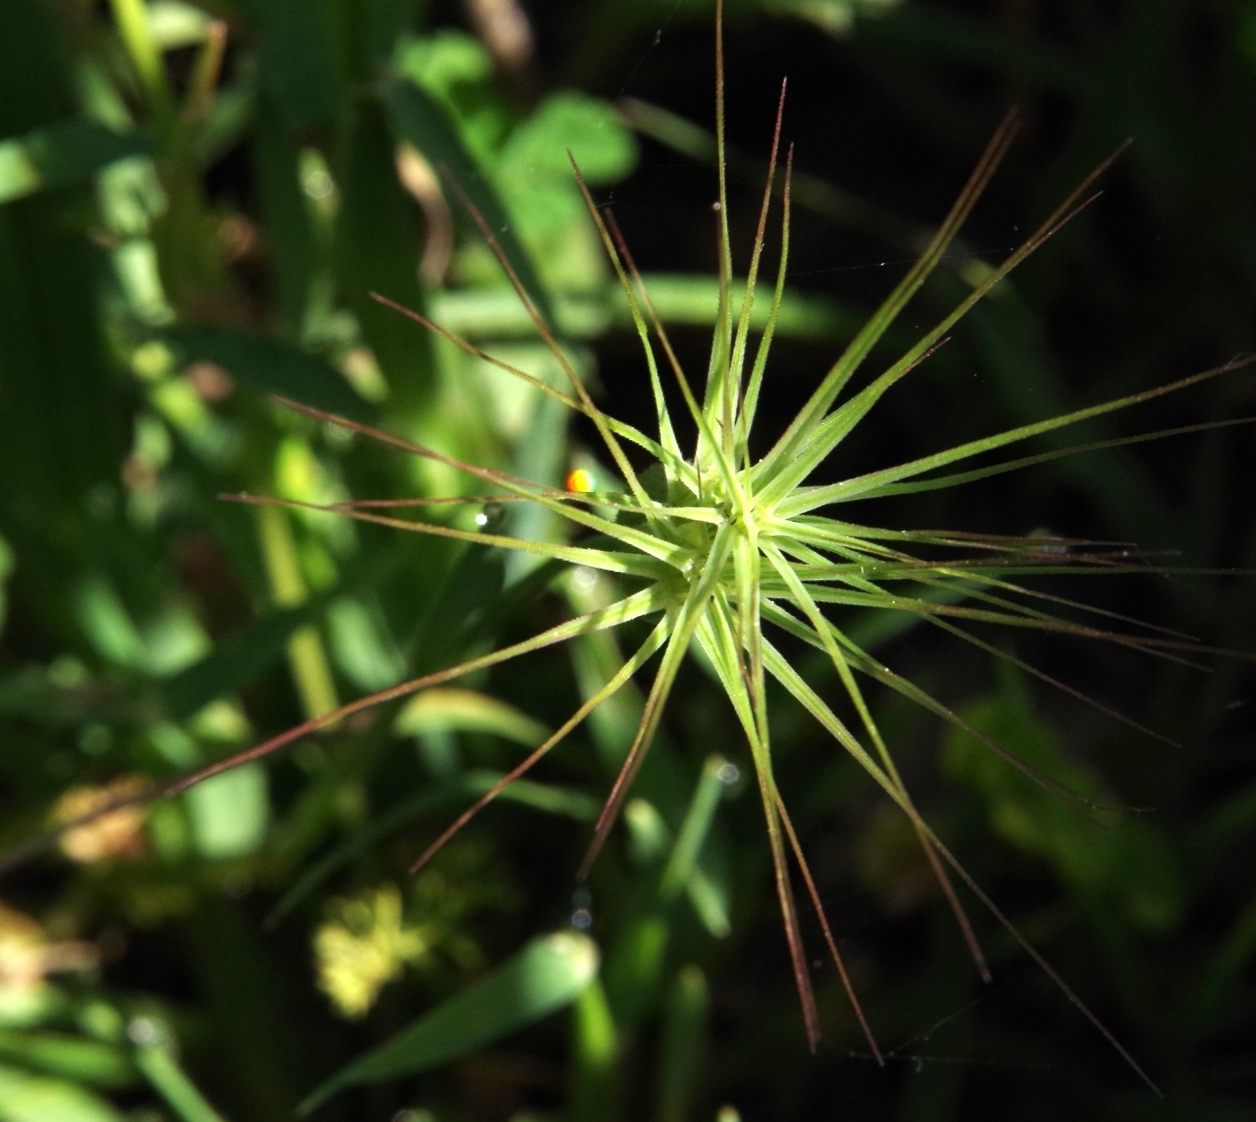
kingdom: Plantae
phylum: Tracheophyta
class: Liliopsida
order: Poales
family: Poaceae
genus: Aegilops
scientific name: Aegilops geniculata
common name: Ovate goat grass
